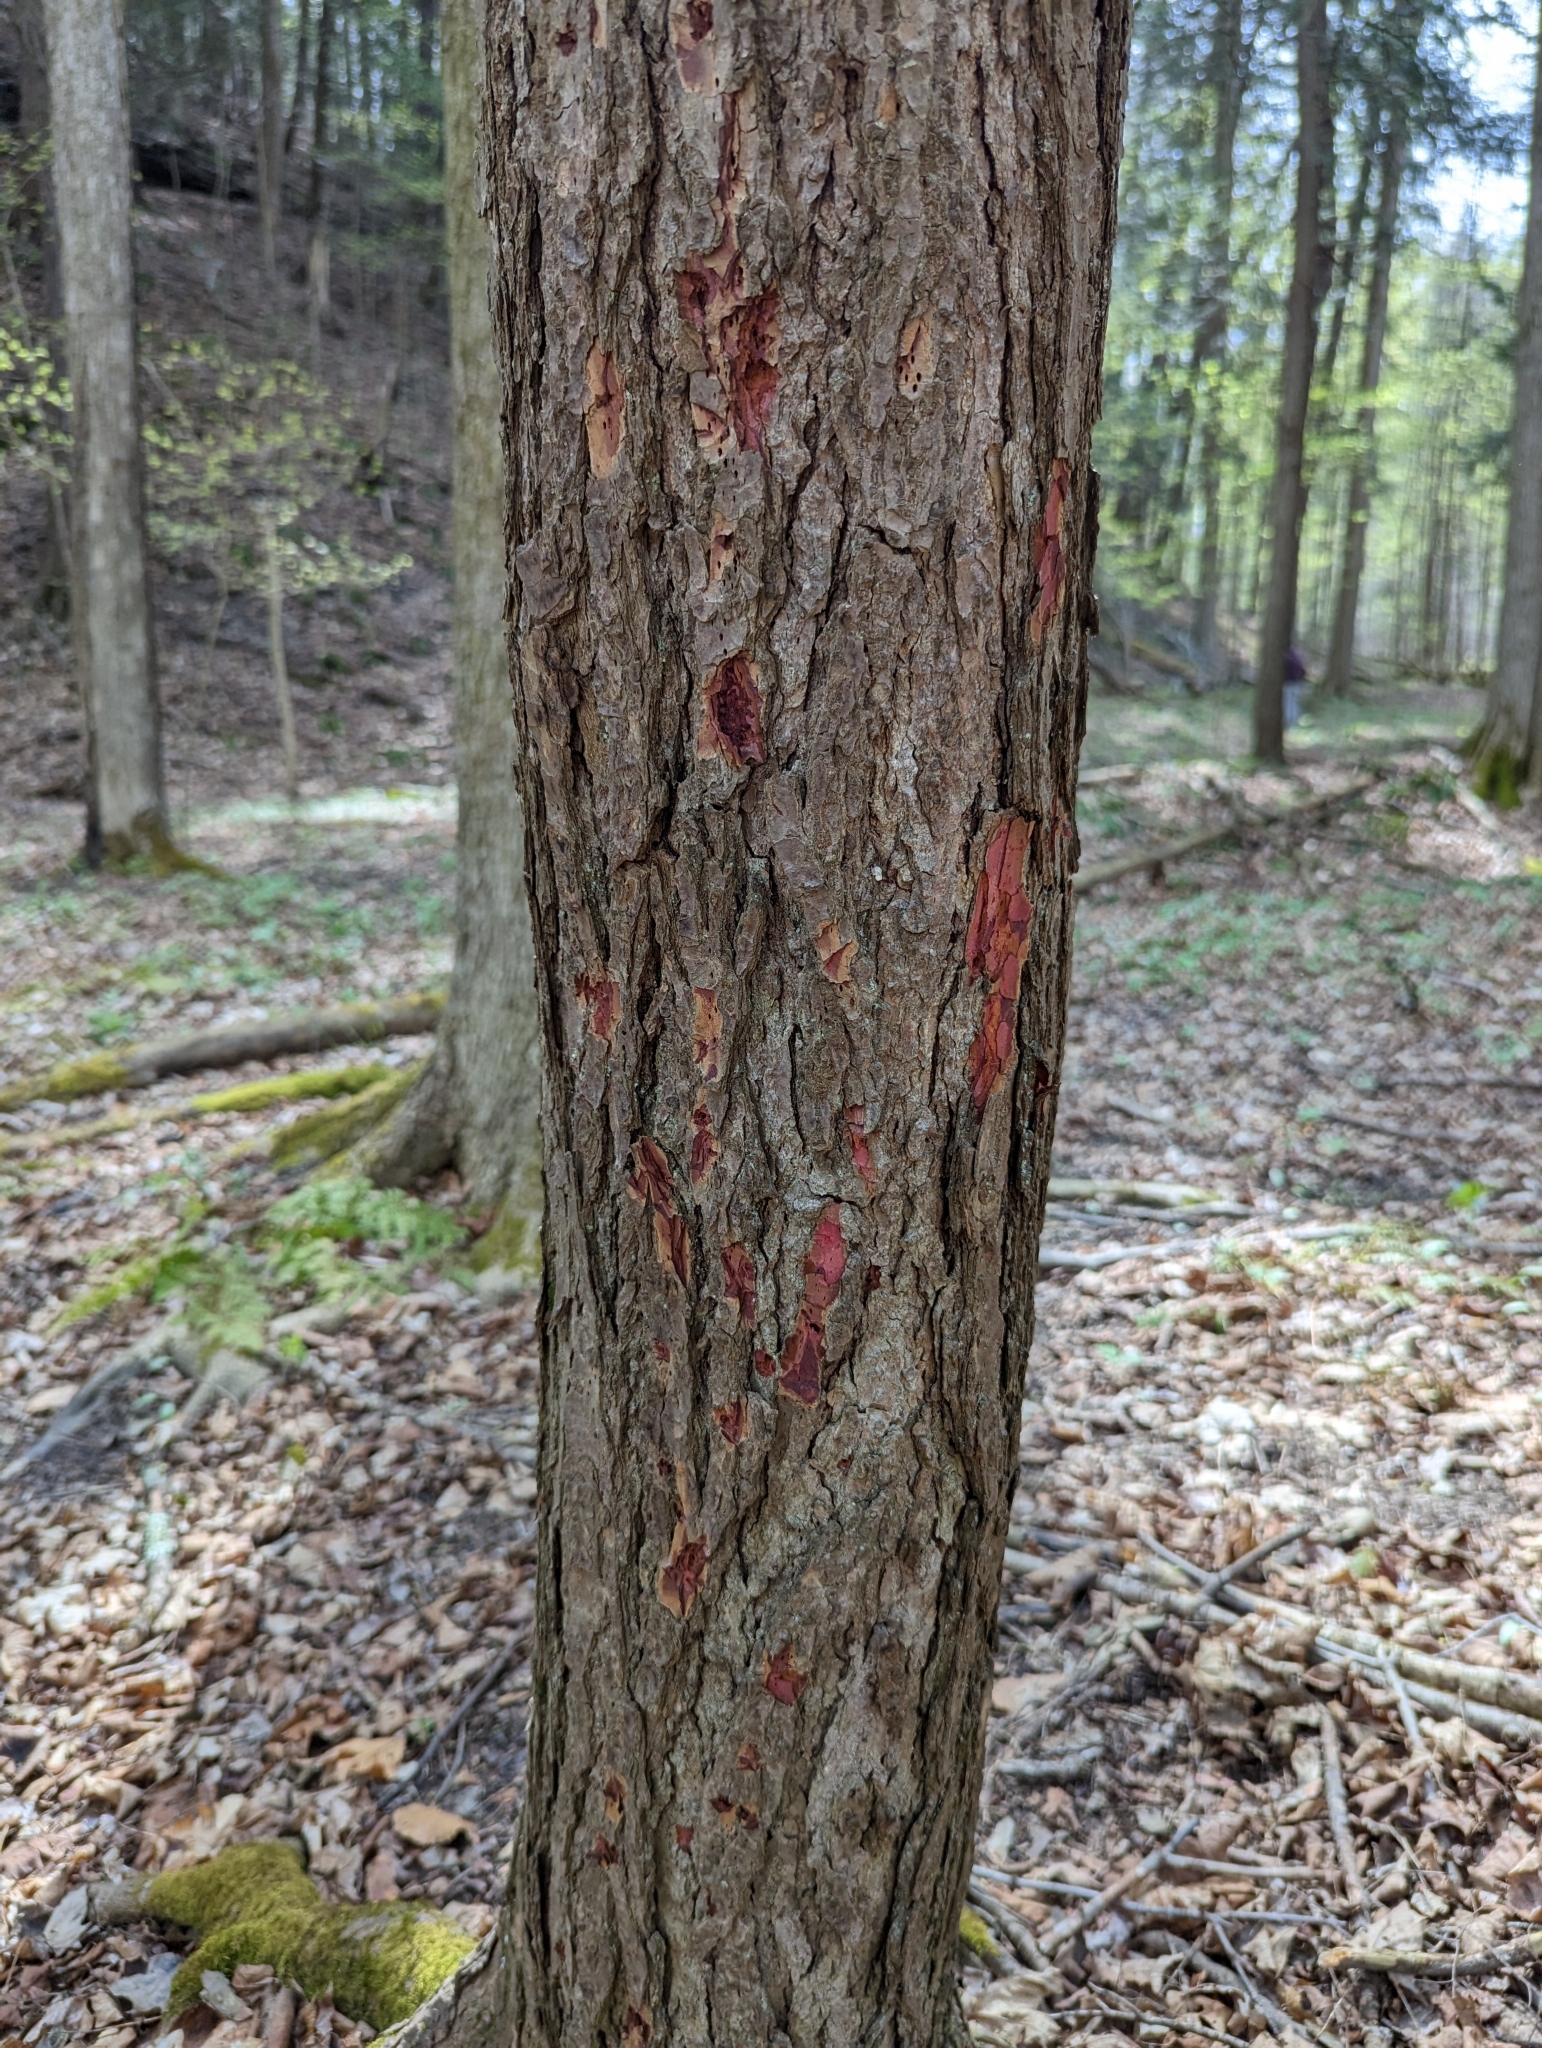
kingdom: Animalia
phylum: Arthropoda
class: Insecta
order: Coleoptera
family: Buprestidae
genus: Phaenops
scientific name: Phaenops fulvoguttata
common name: Hemlock borer
